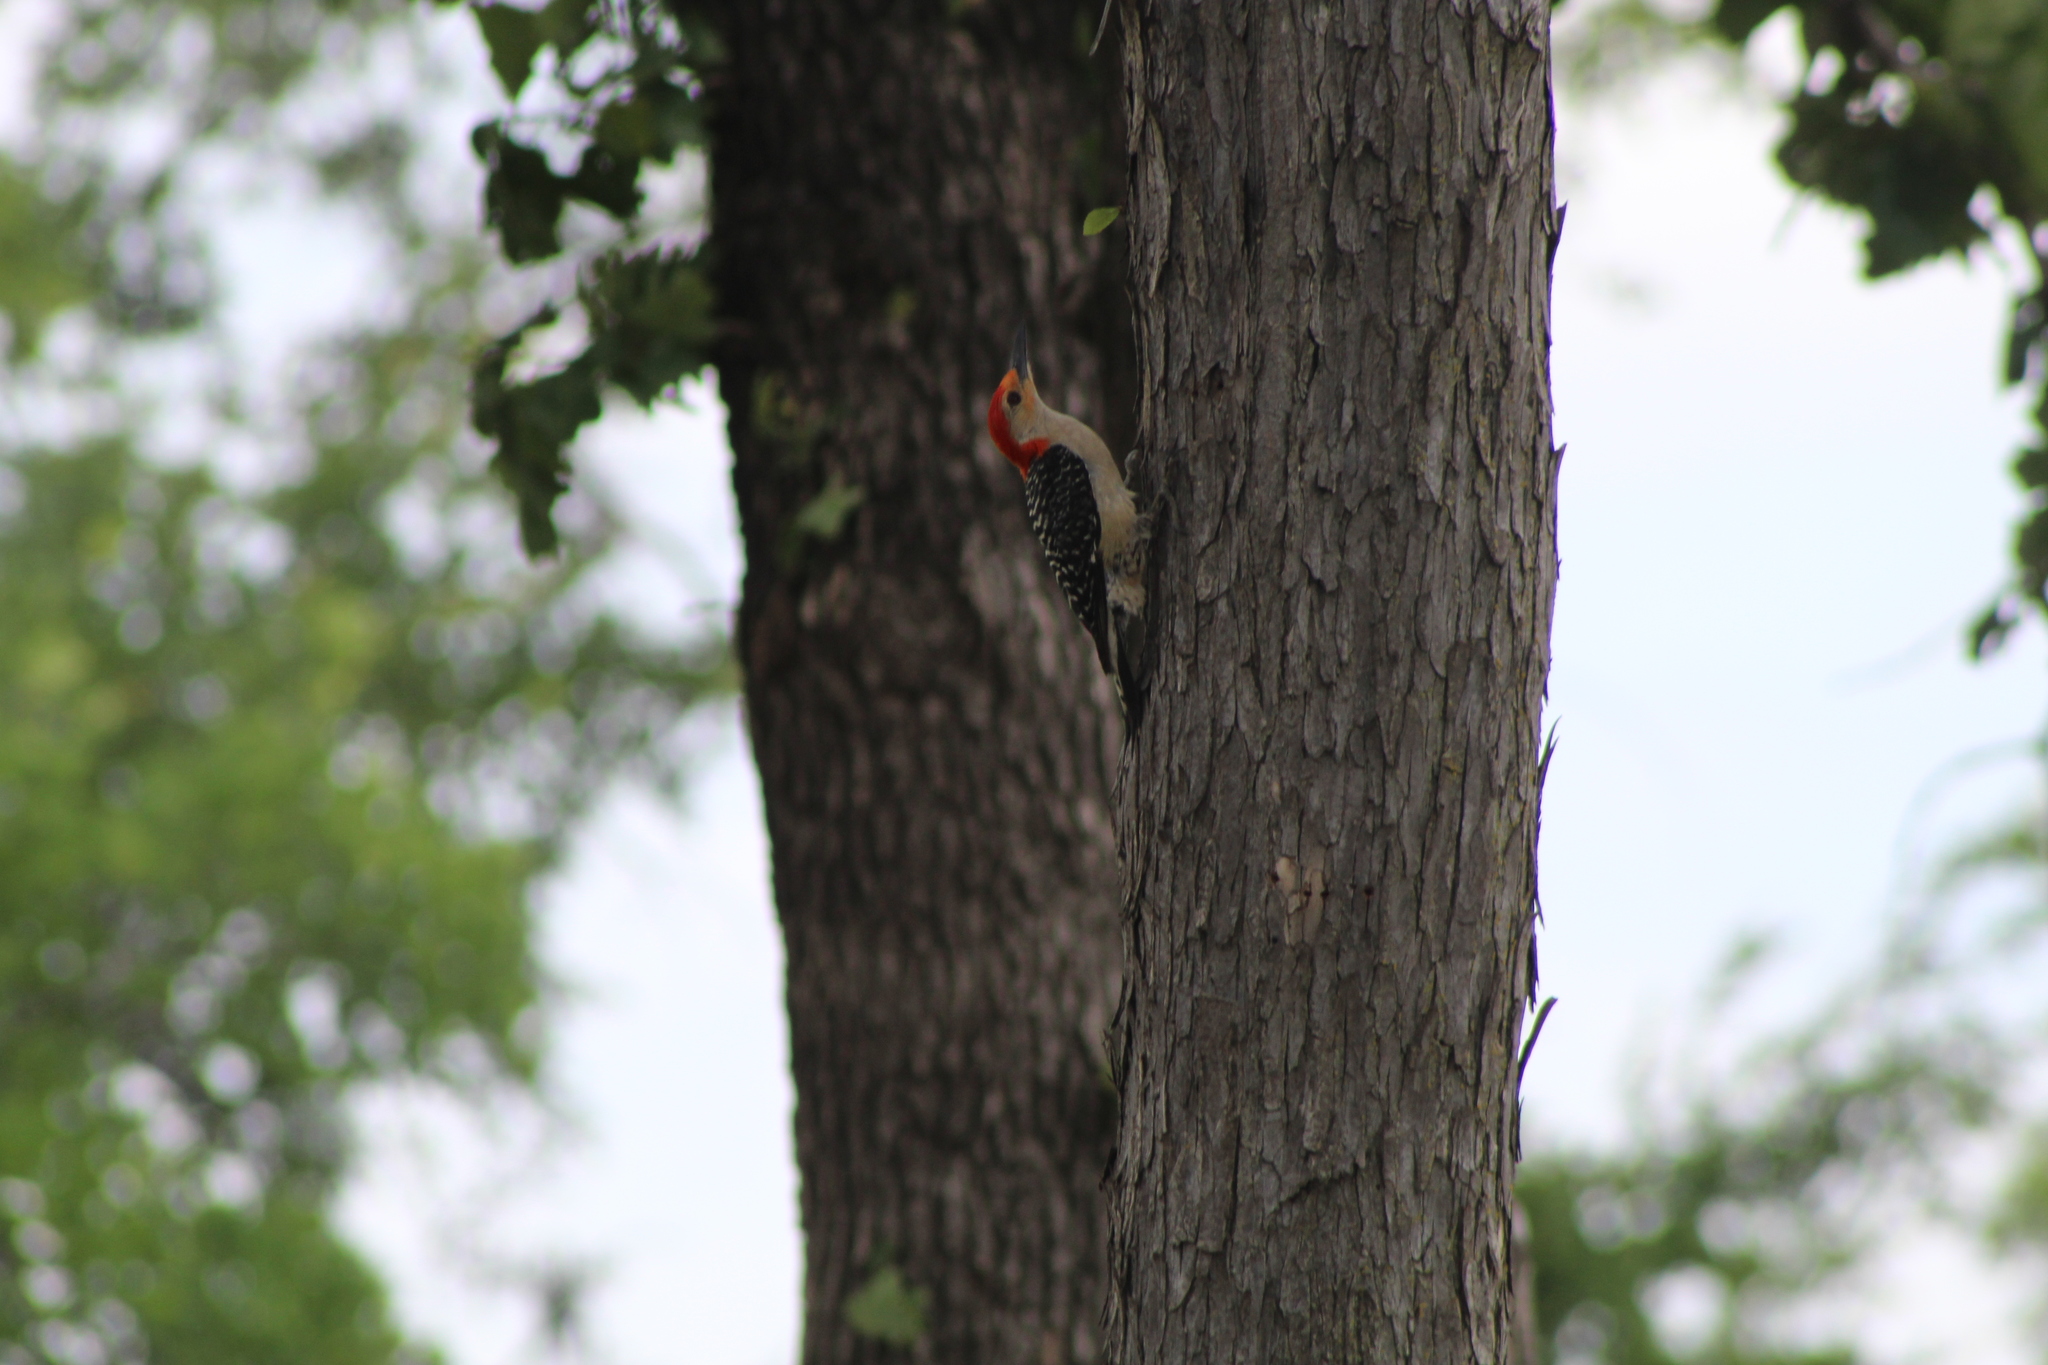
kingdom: Animalia
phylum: Chordata
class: Aves
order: Piciformes
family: Picidae
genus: Melanerpes
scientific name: Melanerpes carolinus
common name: Red-bellied woodpecker
